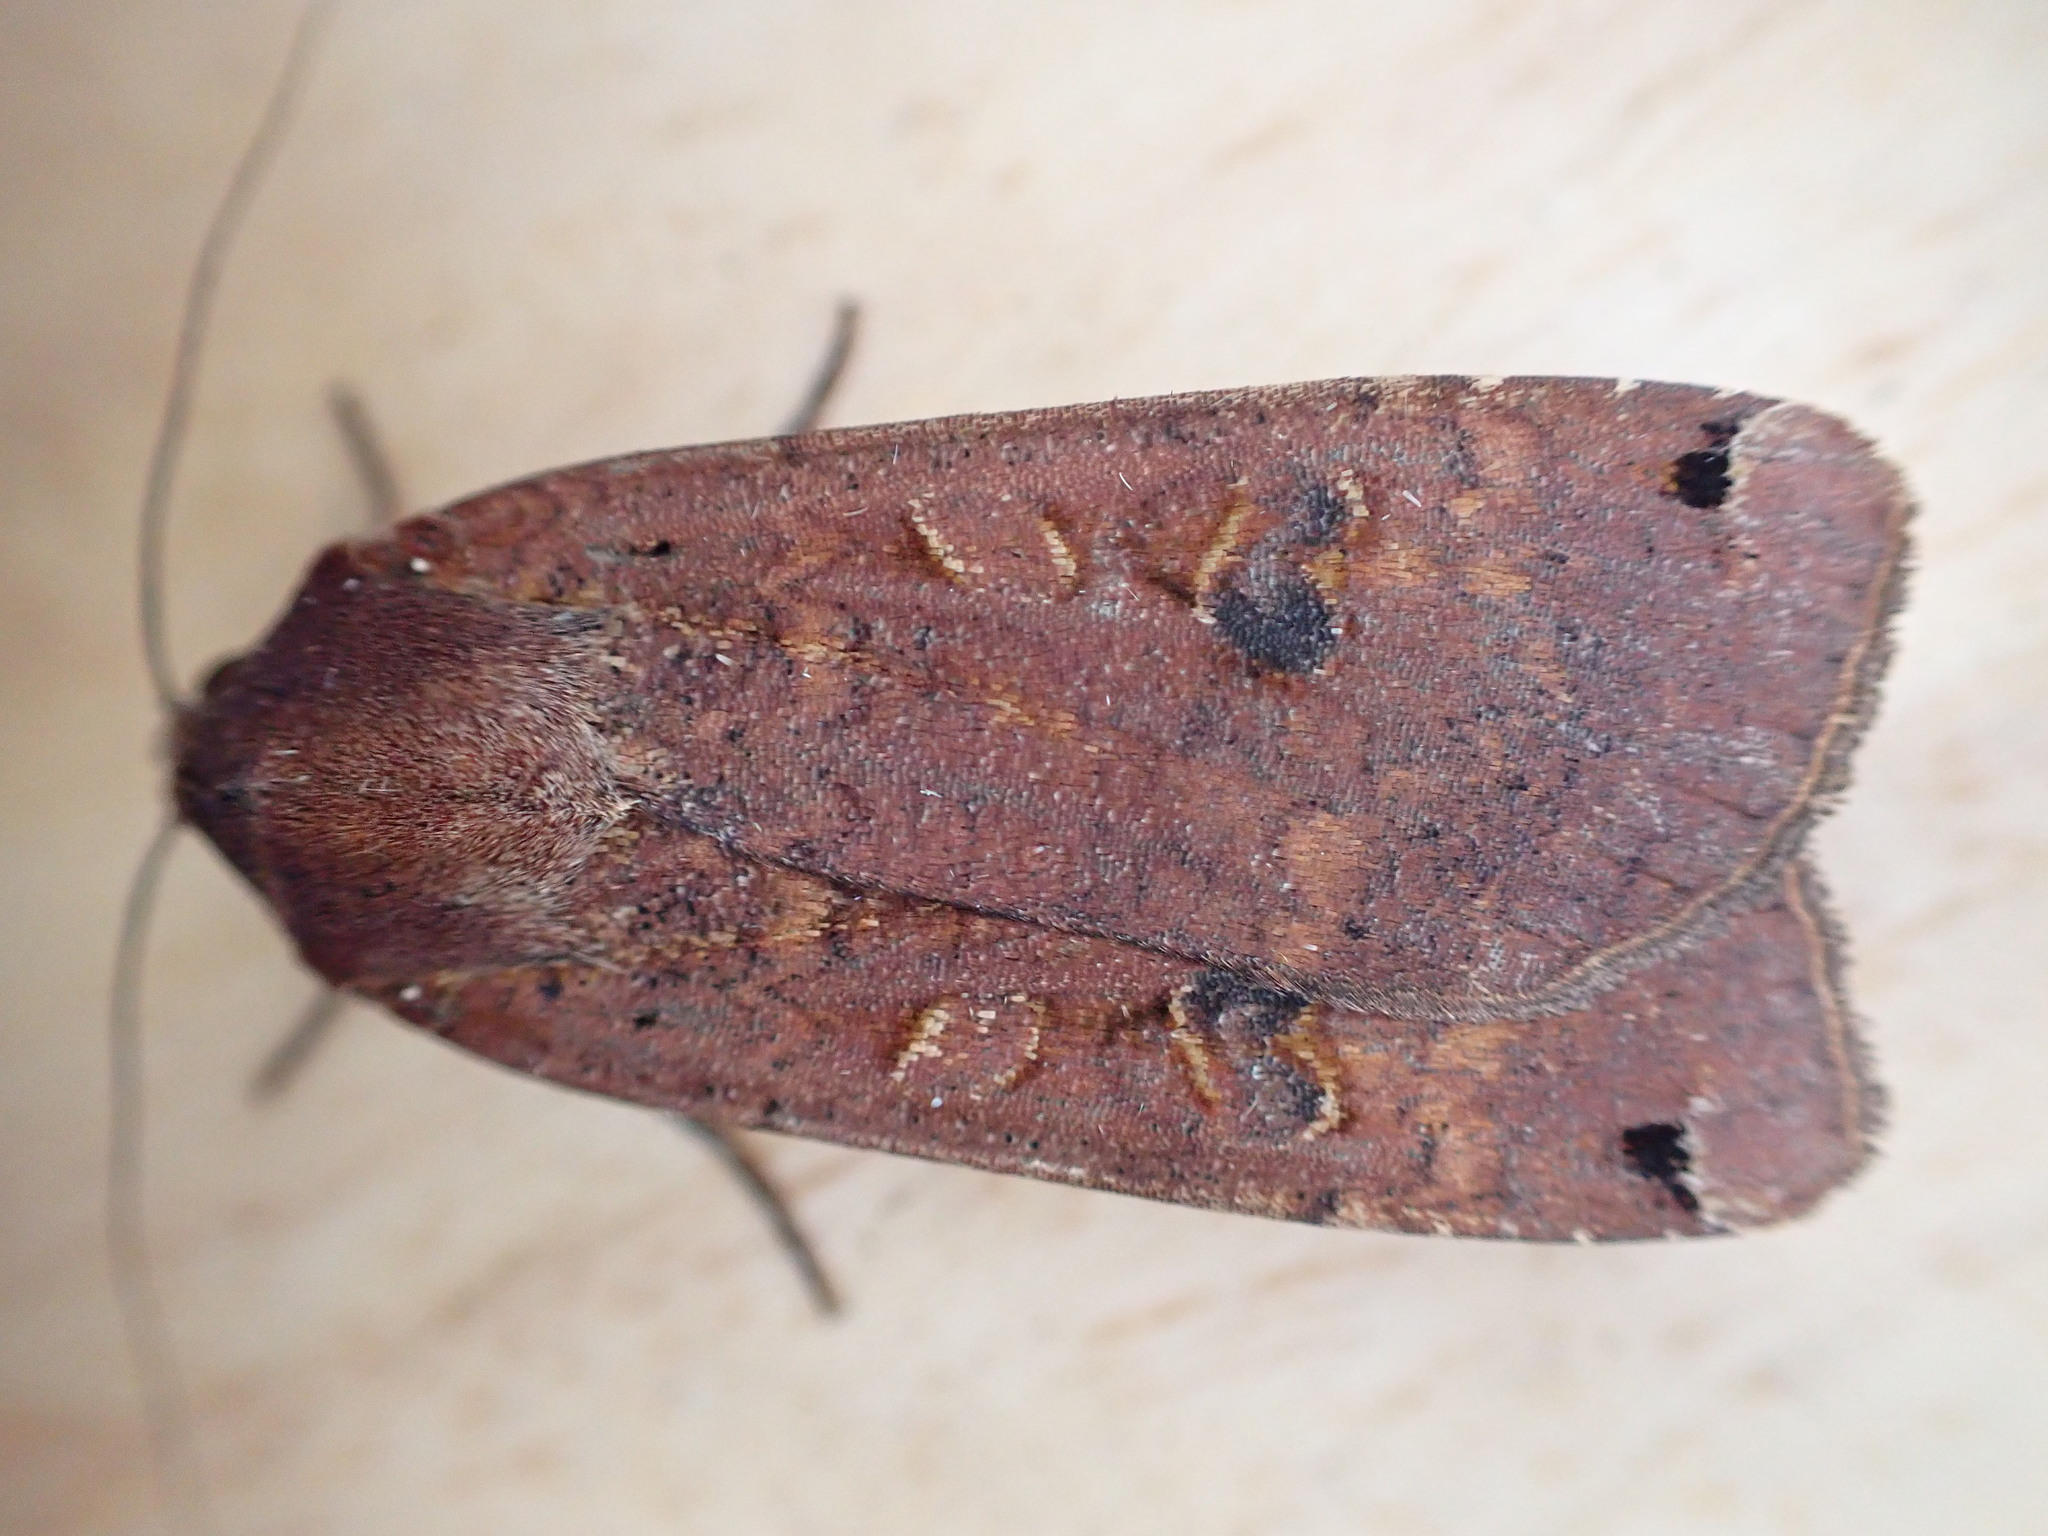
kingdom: Animalia
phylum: Arthropoda
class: Insecta
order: Lepidoptera
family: Noctuidae
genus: Noctua
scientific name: Noctua pronuba
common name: Large yellow underwing
